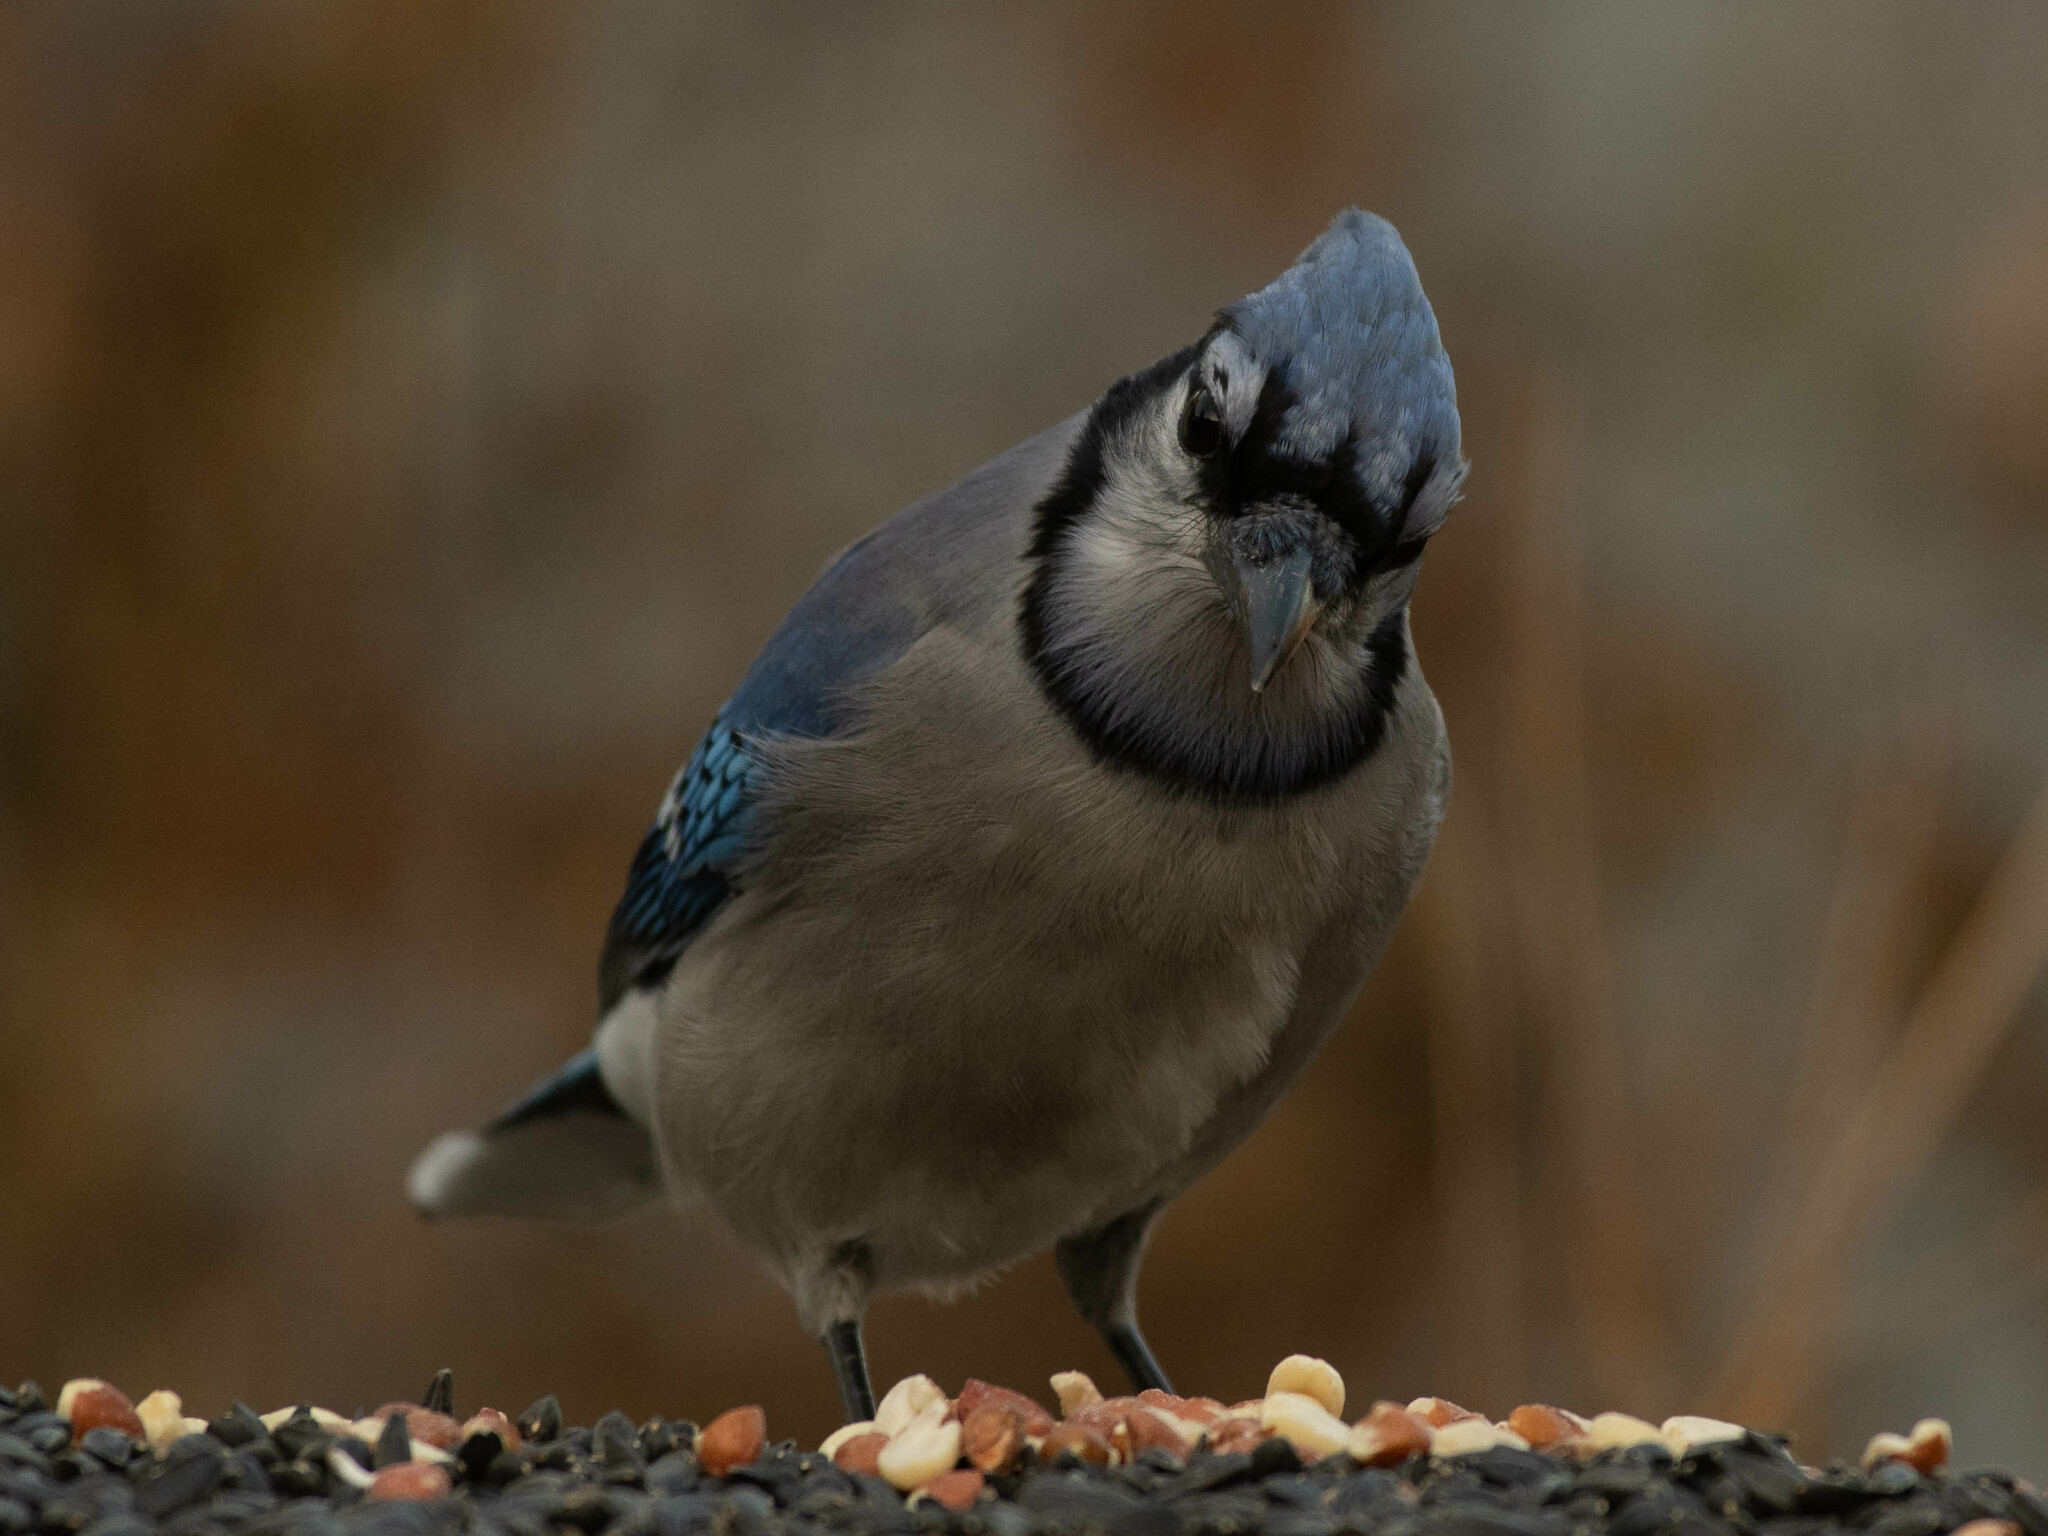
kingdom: Animalia
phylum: Chordata
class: Aves
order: Passeriformes
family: Corvidae
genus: Cyanocitta
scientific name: Cyanocitta cristata
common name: Blue jay
